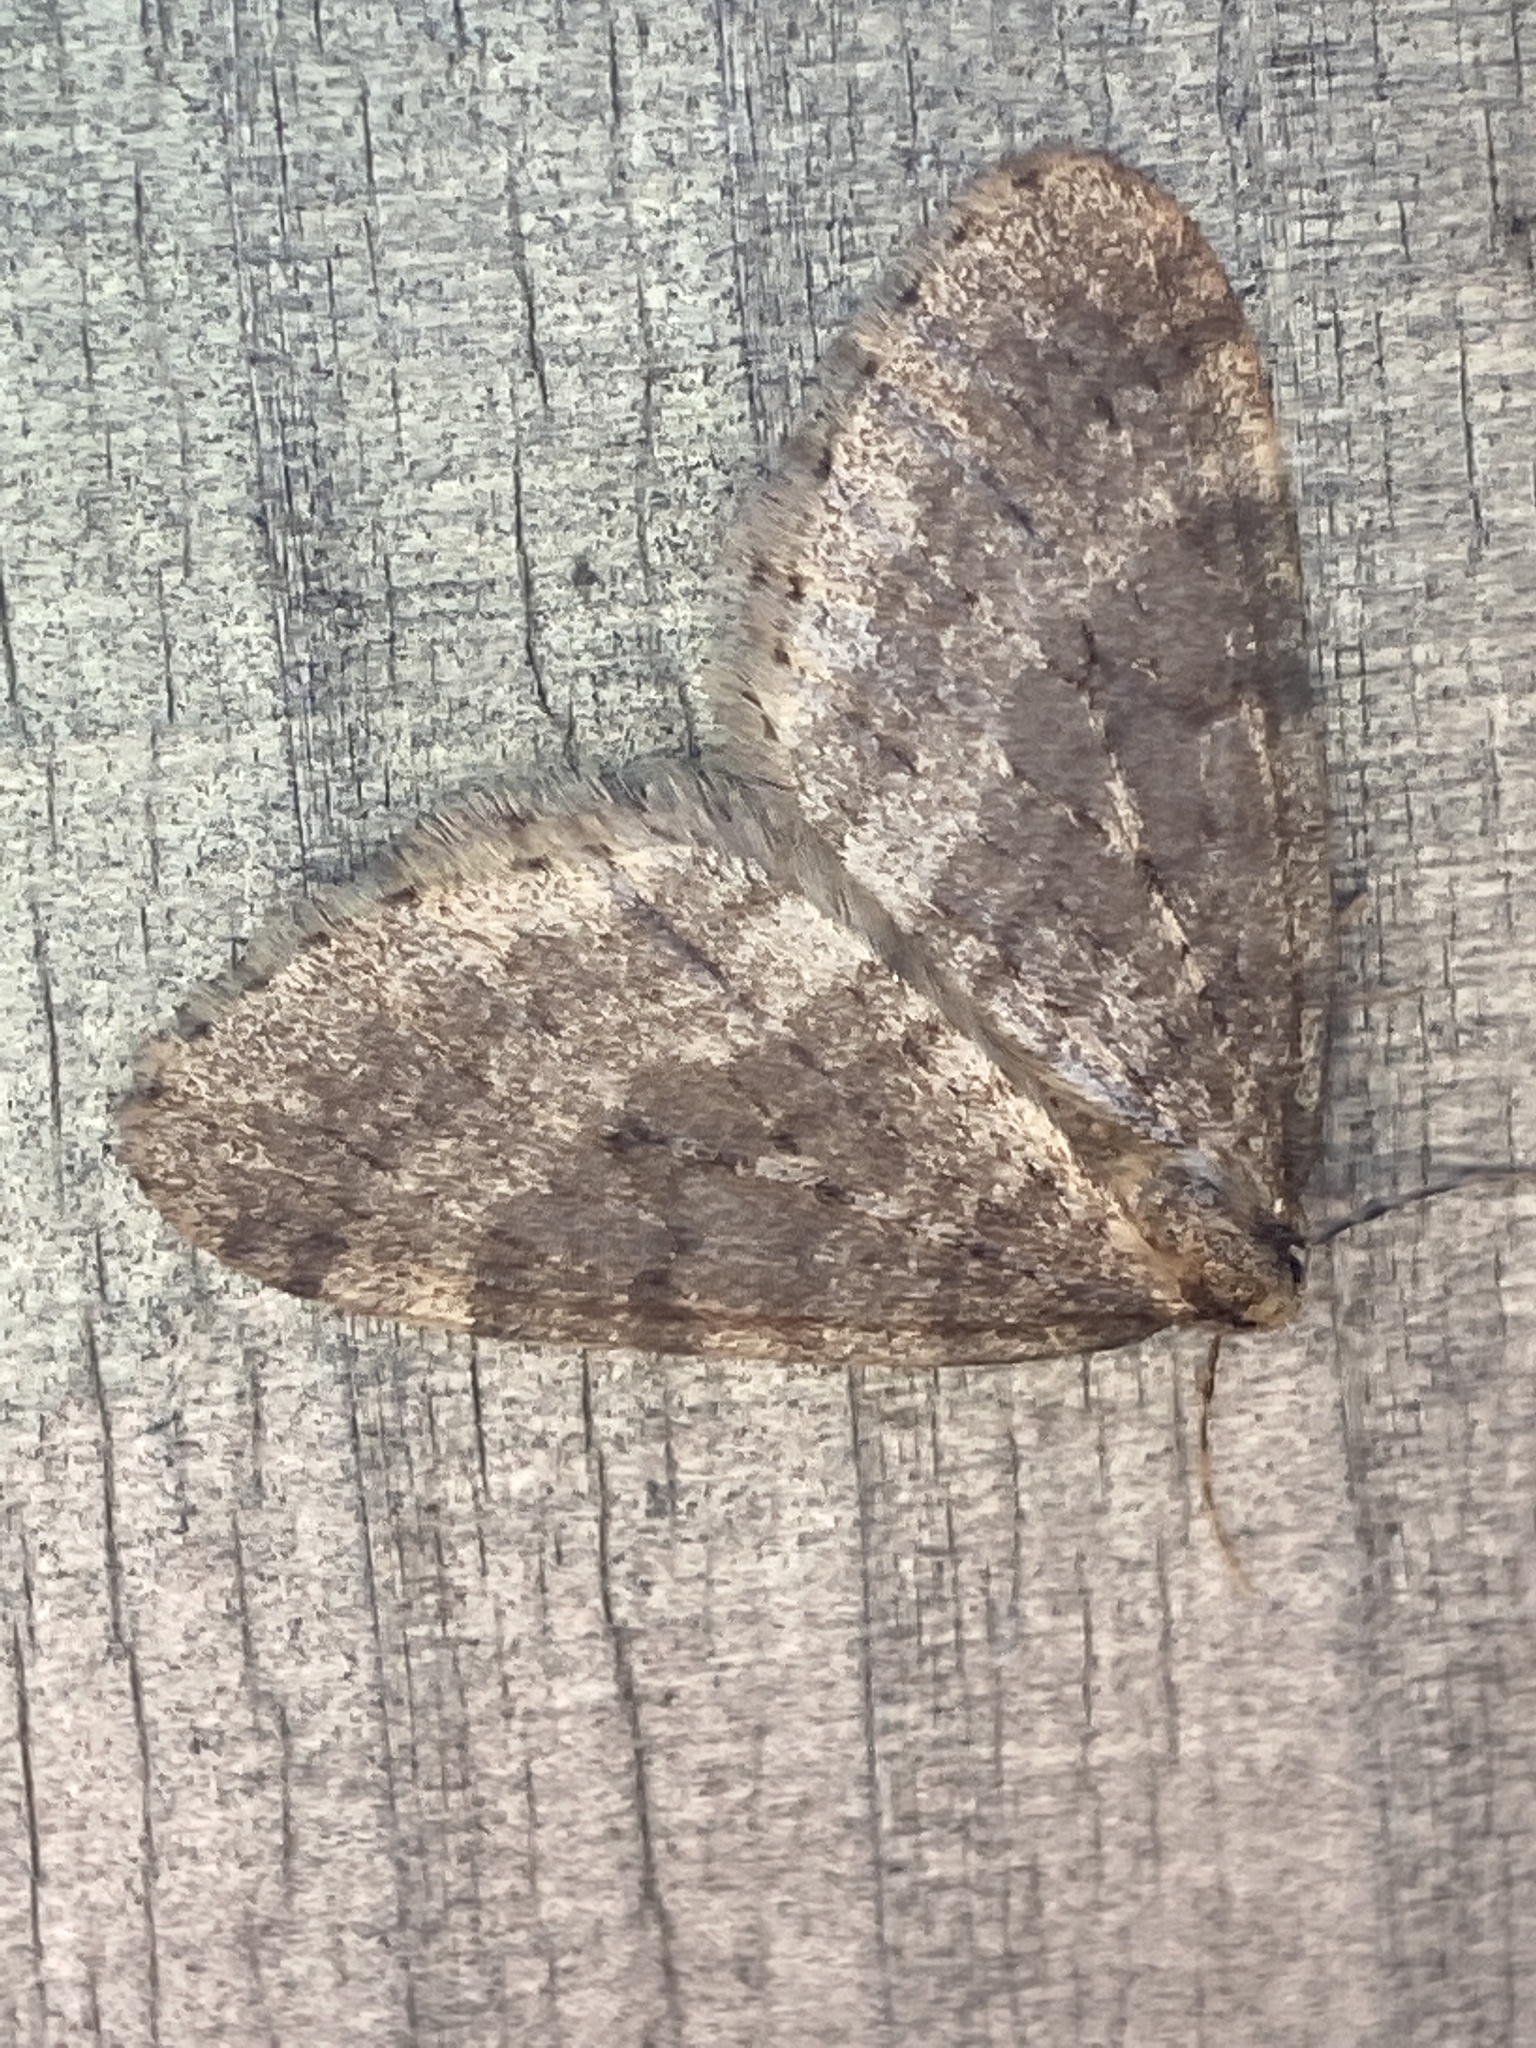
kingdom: Animalia
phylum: Arthropoda
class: Insecta
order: Lepidoptera
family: Geometridae
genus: Operophtera
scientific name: Operophtera brumata
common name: Winter moth
